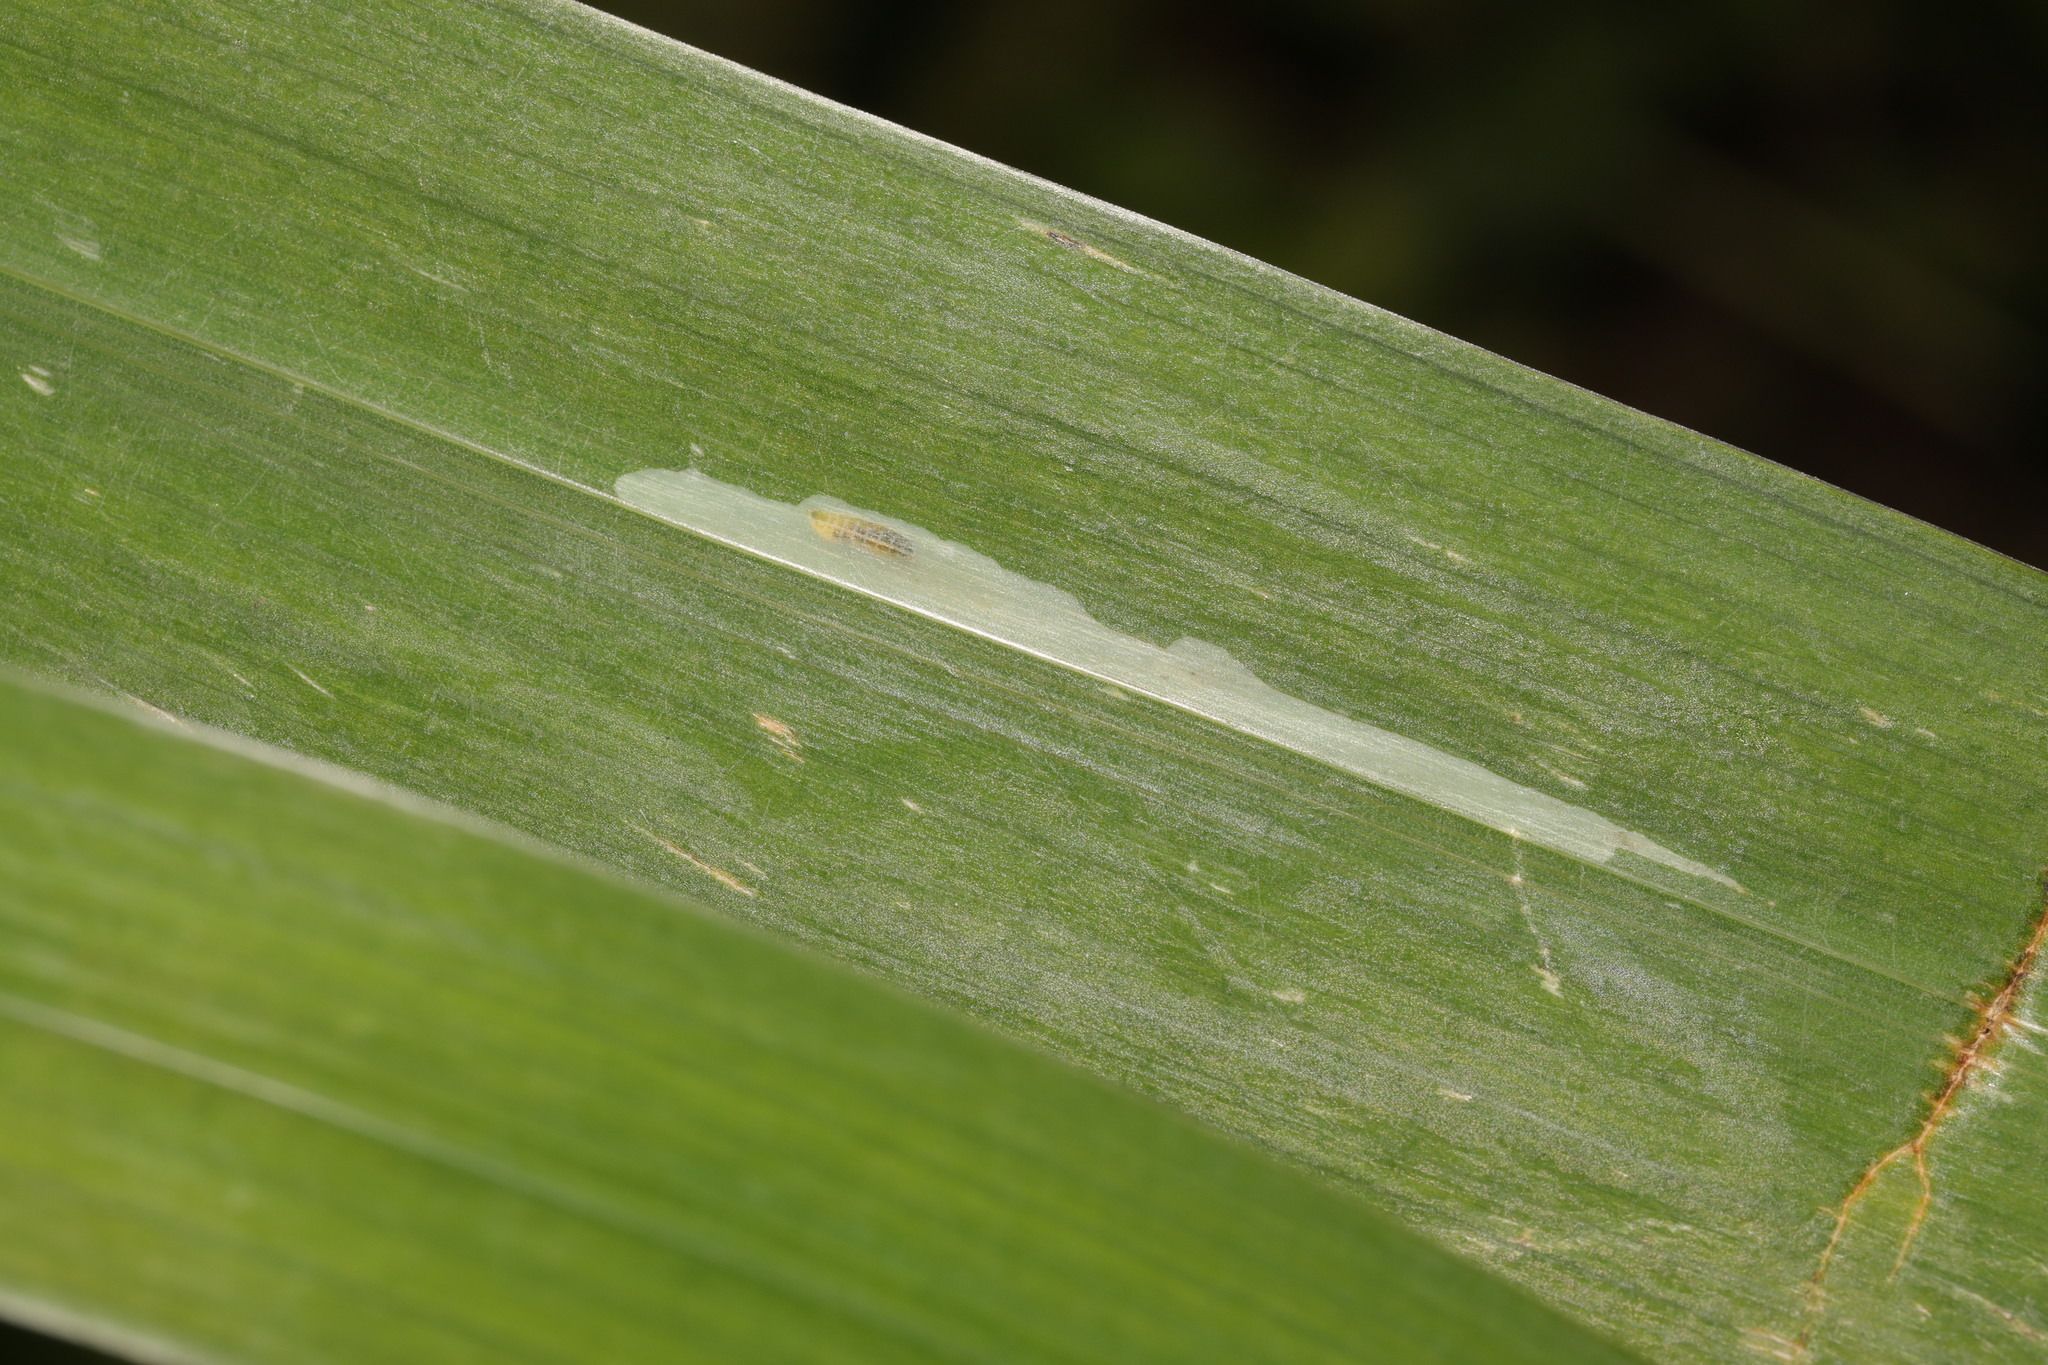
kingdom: Animalia
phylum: Arthropoda
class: Insecta
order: Diptera
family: Agromyzidae
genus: Cerodontha
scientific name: Cerodontha ircos
